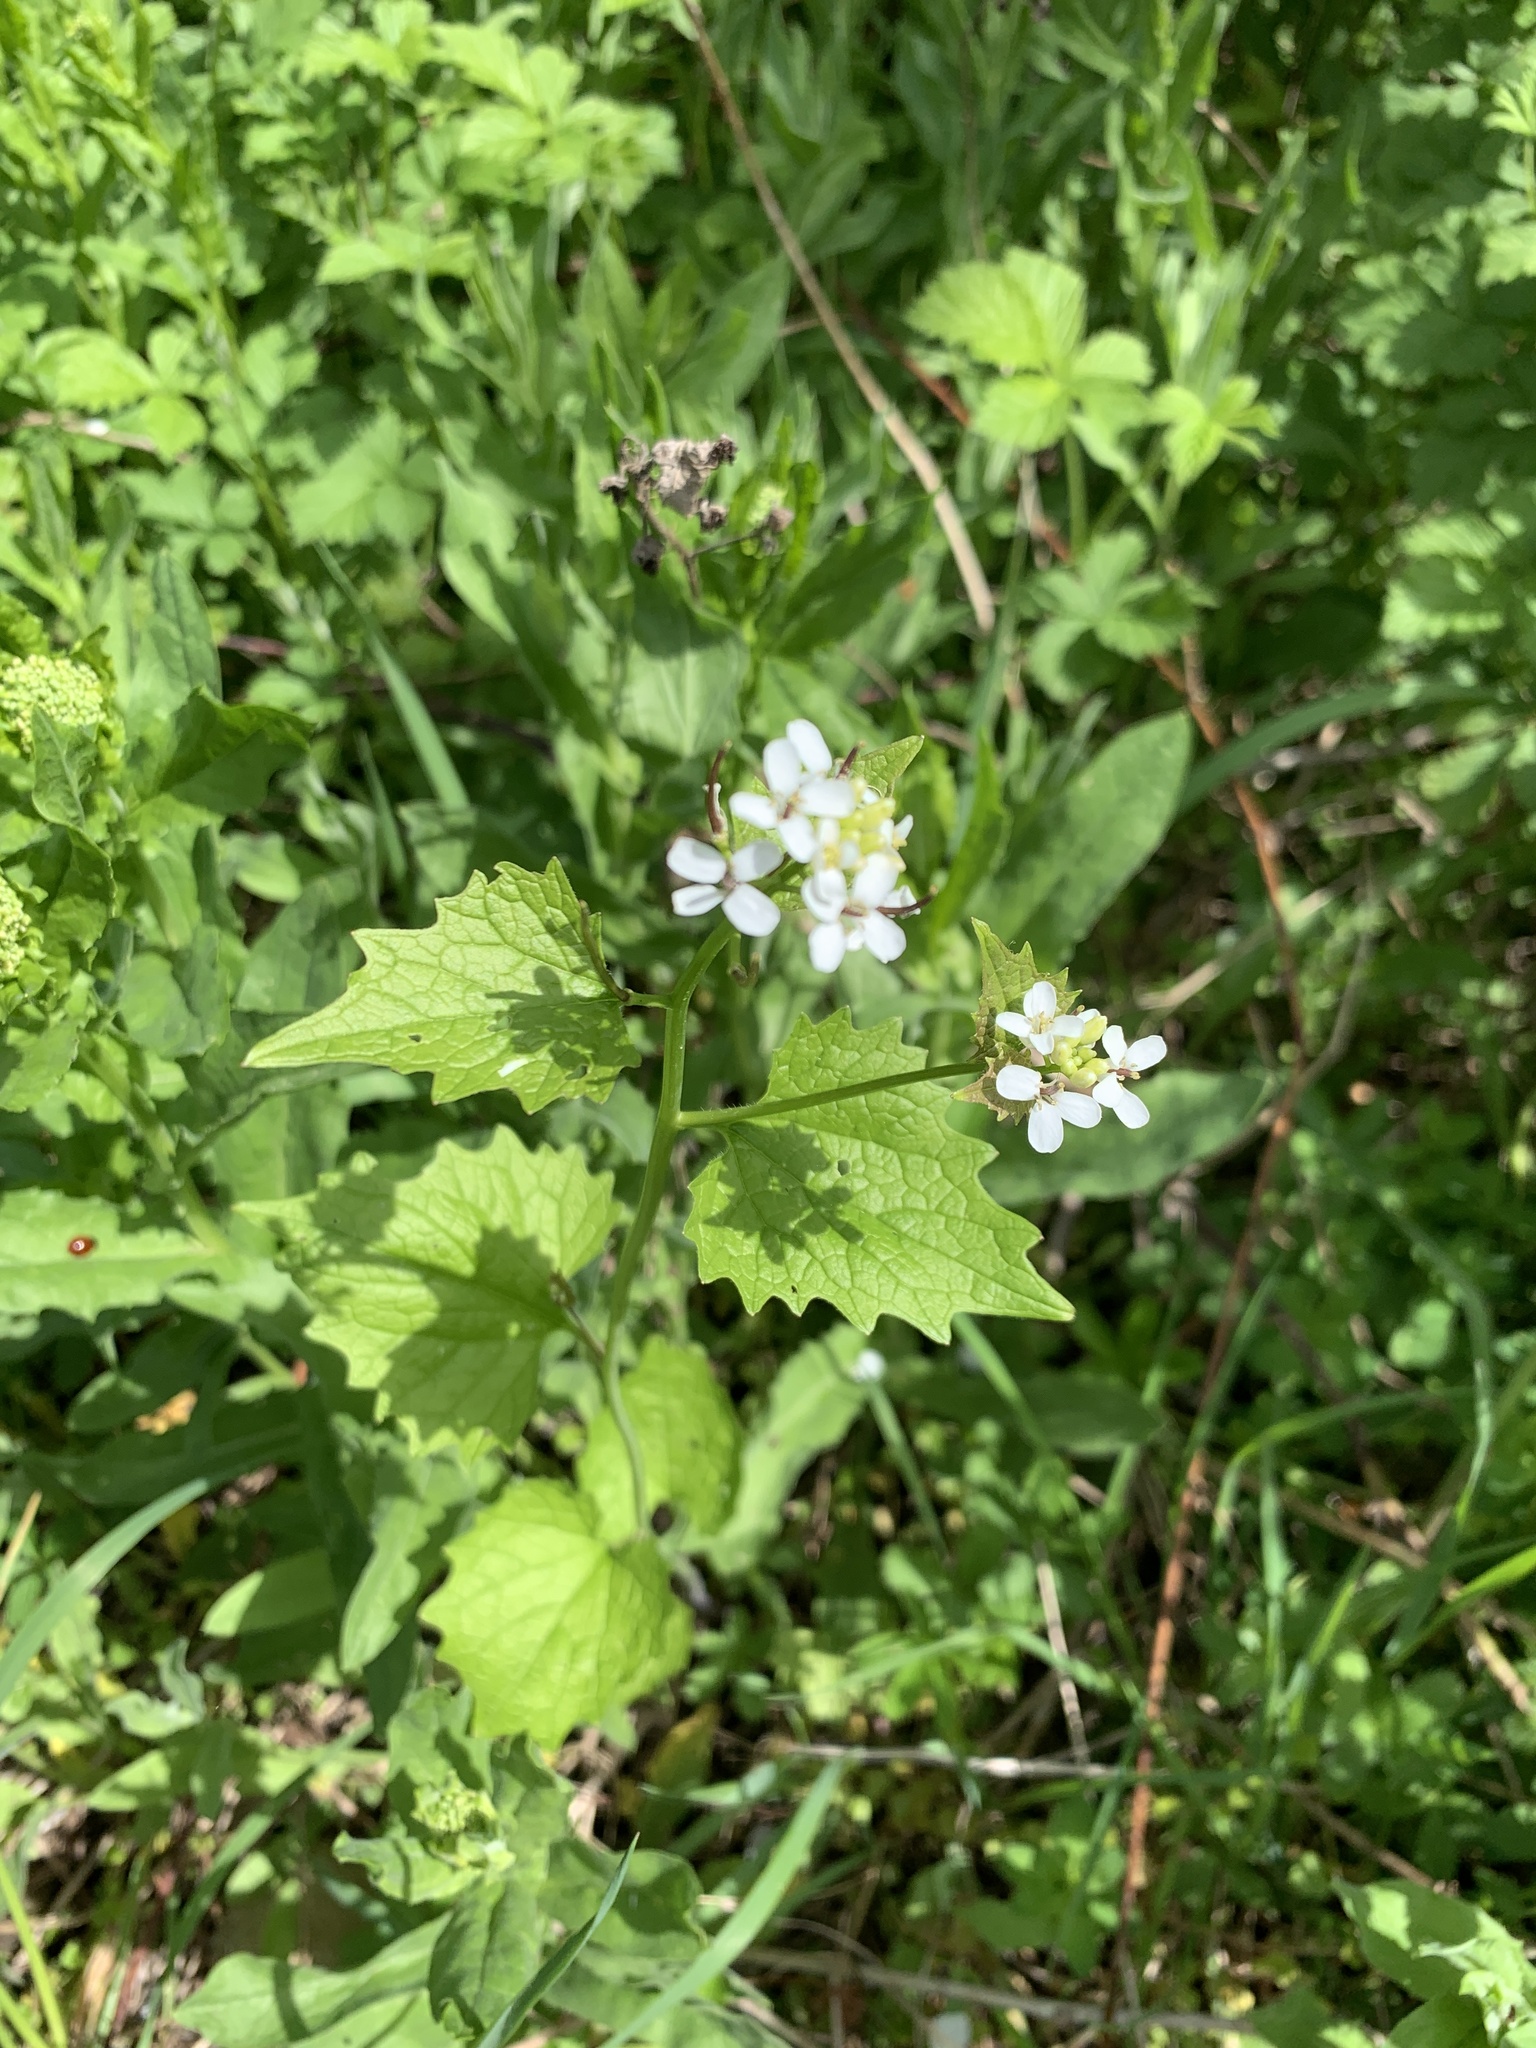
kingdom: Plantae
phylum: Tracheophyta
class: Magnoliopsida
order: Brassicales
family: Brassicaceae
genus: Alliaria
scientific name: Alliaria petiolata
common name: Garlic mustard
